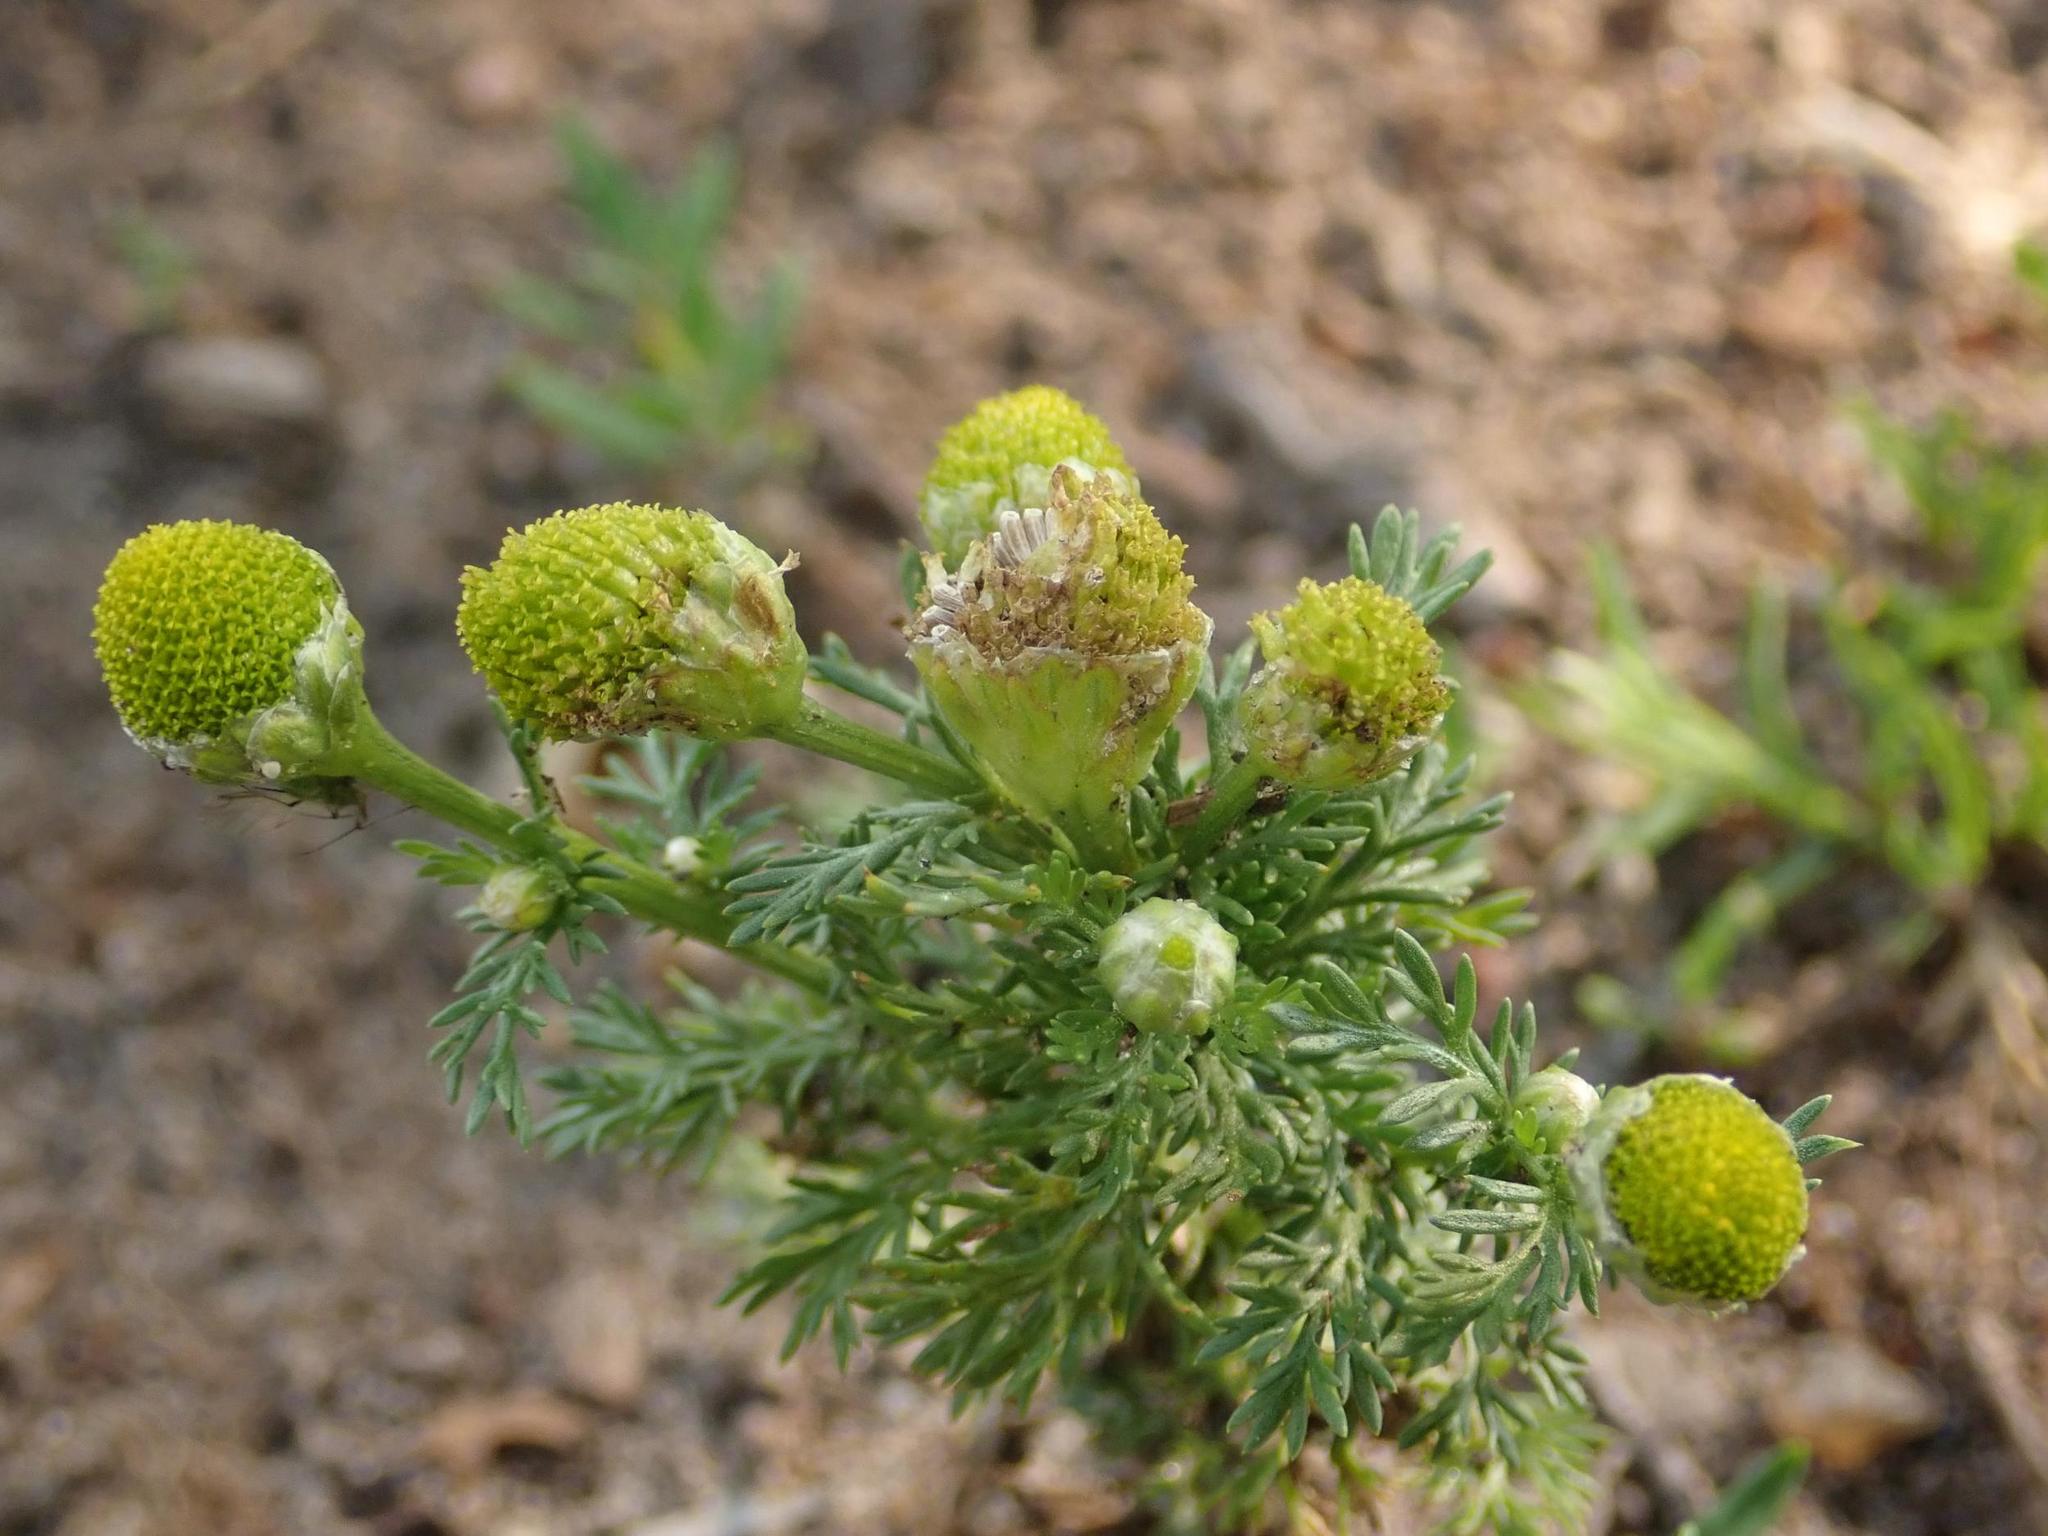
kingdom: Plantae
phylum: Tracheophyta
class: Magnoliopsida
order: Asterales
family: Asteraceae
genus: Matricaria
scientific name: Matricaria discoidea
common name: Disc mayweed
